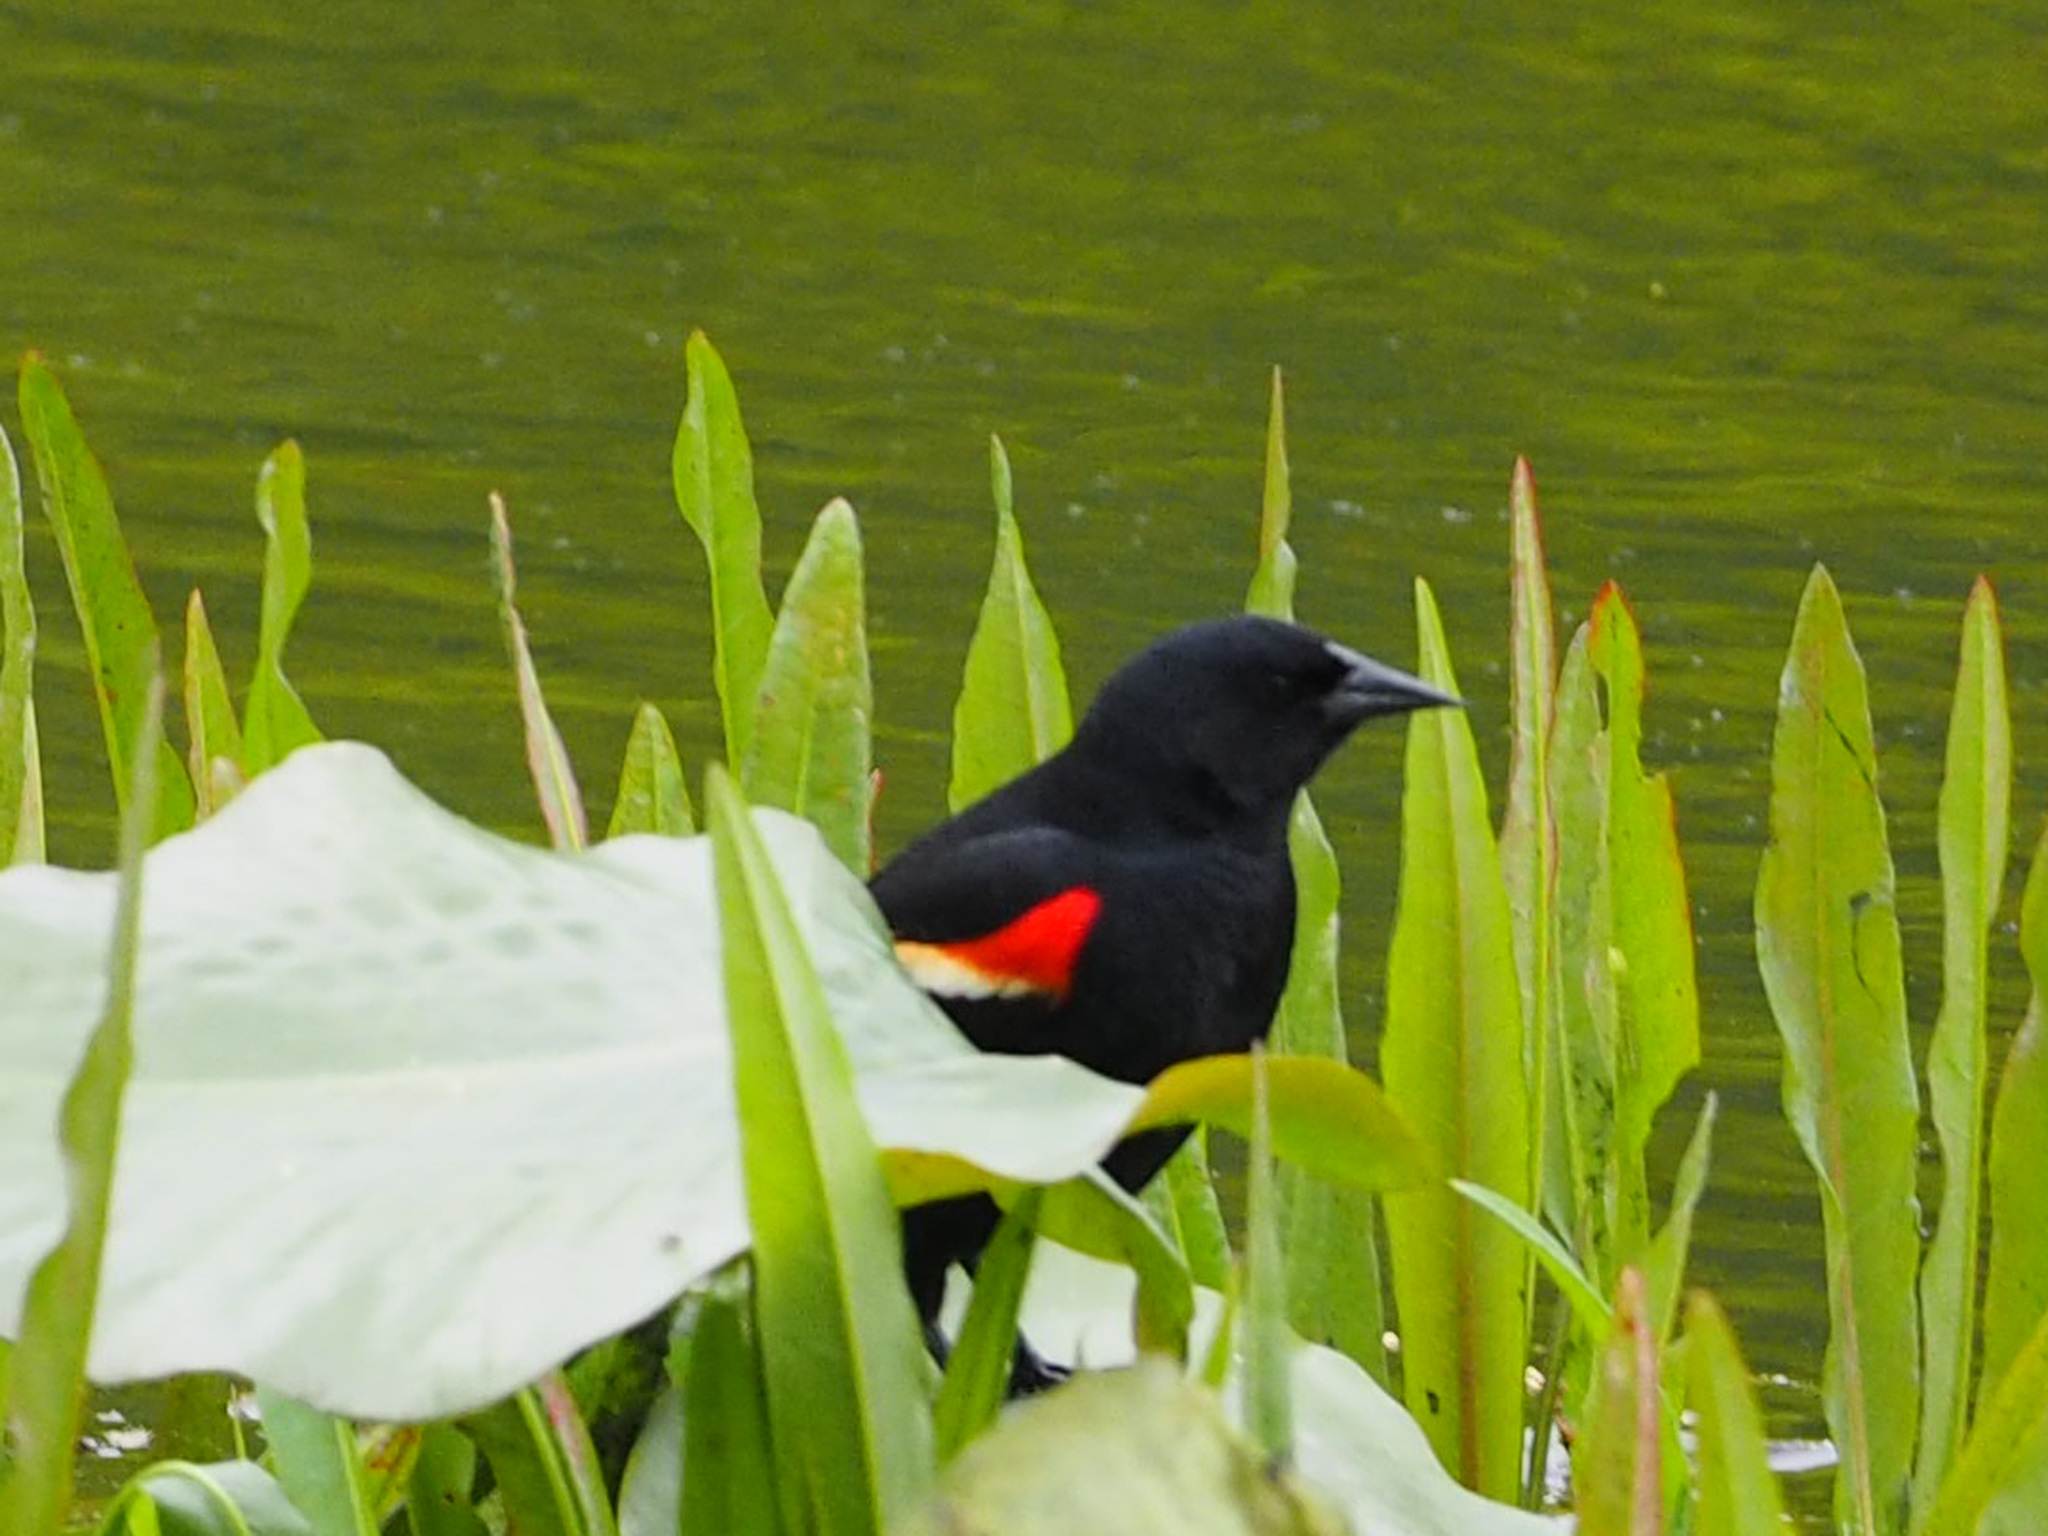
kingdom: Animalia
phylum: Chordata
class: Aves
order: Passeriformes
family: Icteridae
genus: Agelaius
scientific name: Agelaius phoeniceus
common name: Red-winged blackbird
